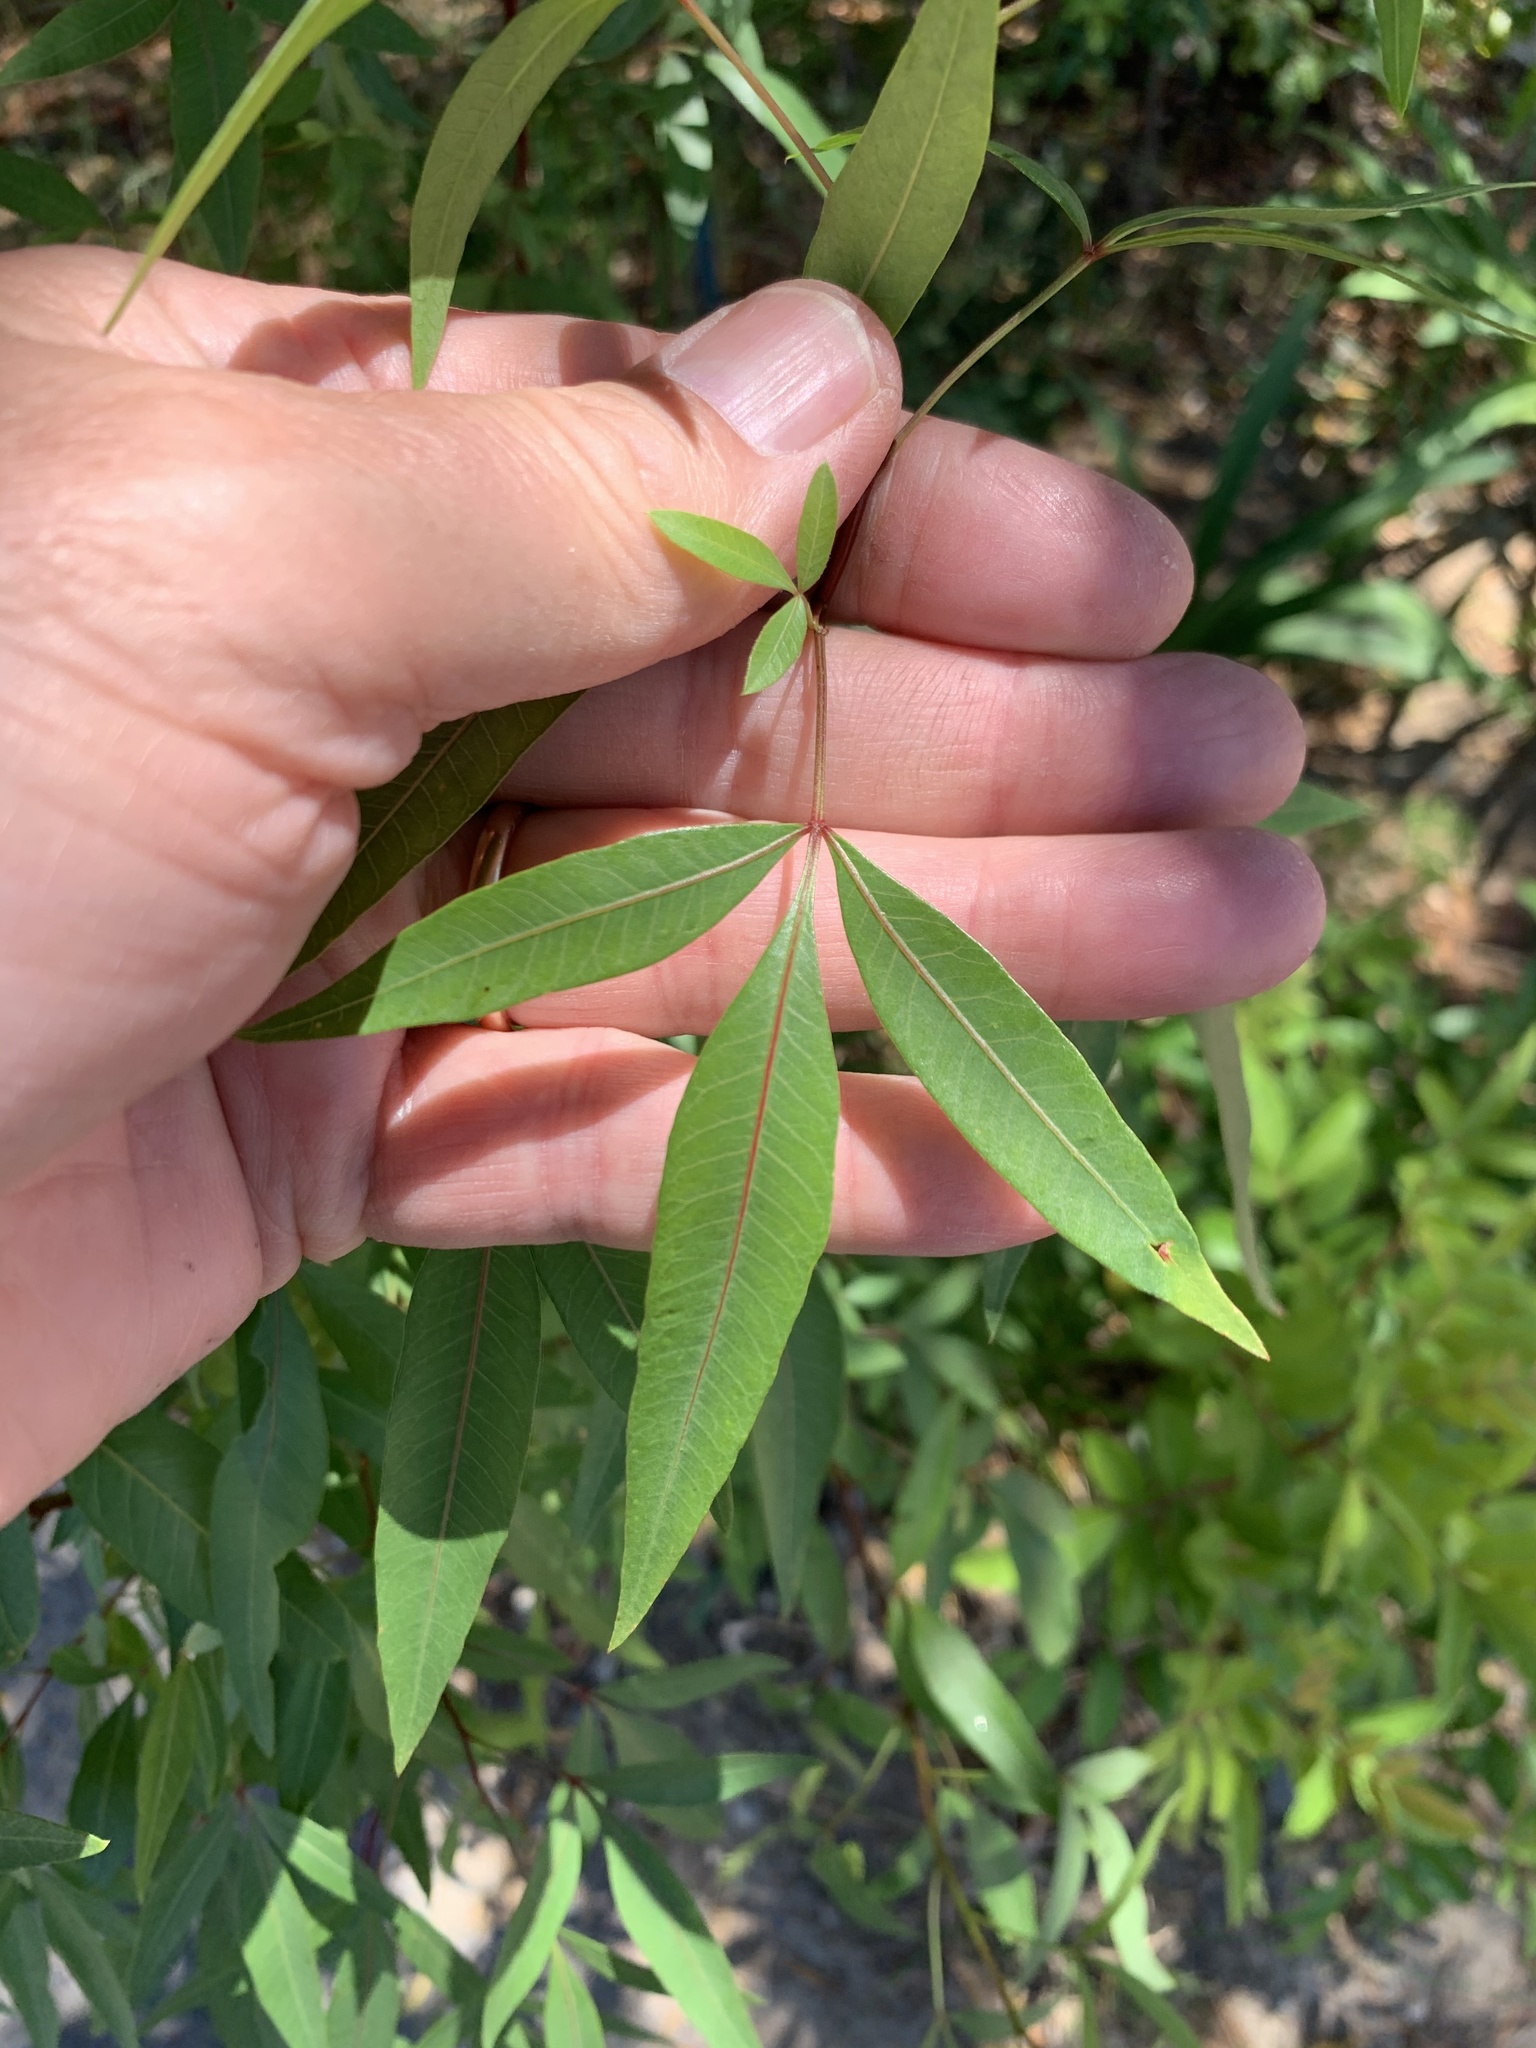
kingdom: Plantae
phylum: Tracheophyta
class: Magnoliopsida
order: Sapindales
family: Anacardiaceae
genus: Searsia
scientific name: Searsia pendulina
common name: White karee
